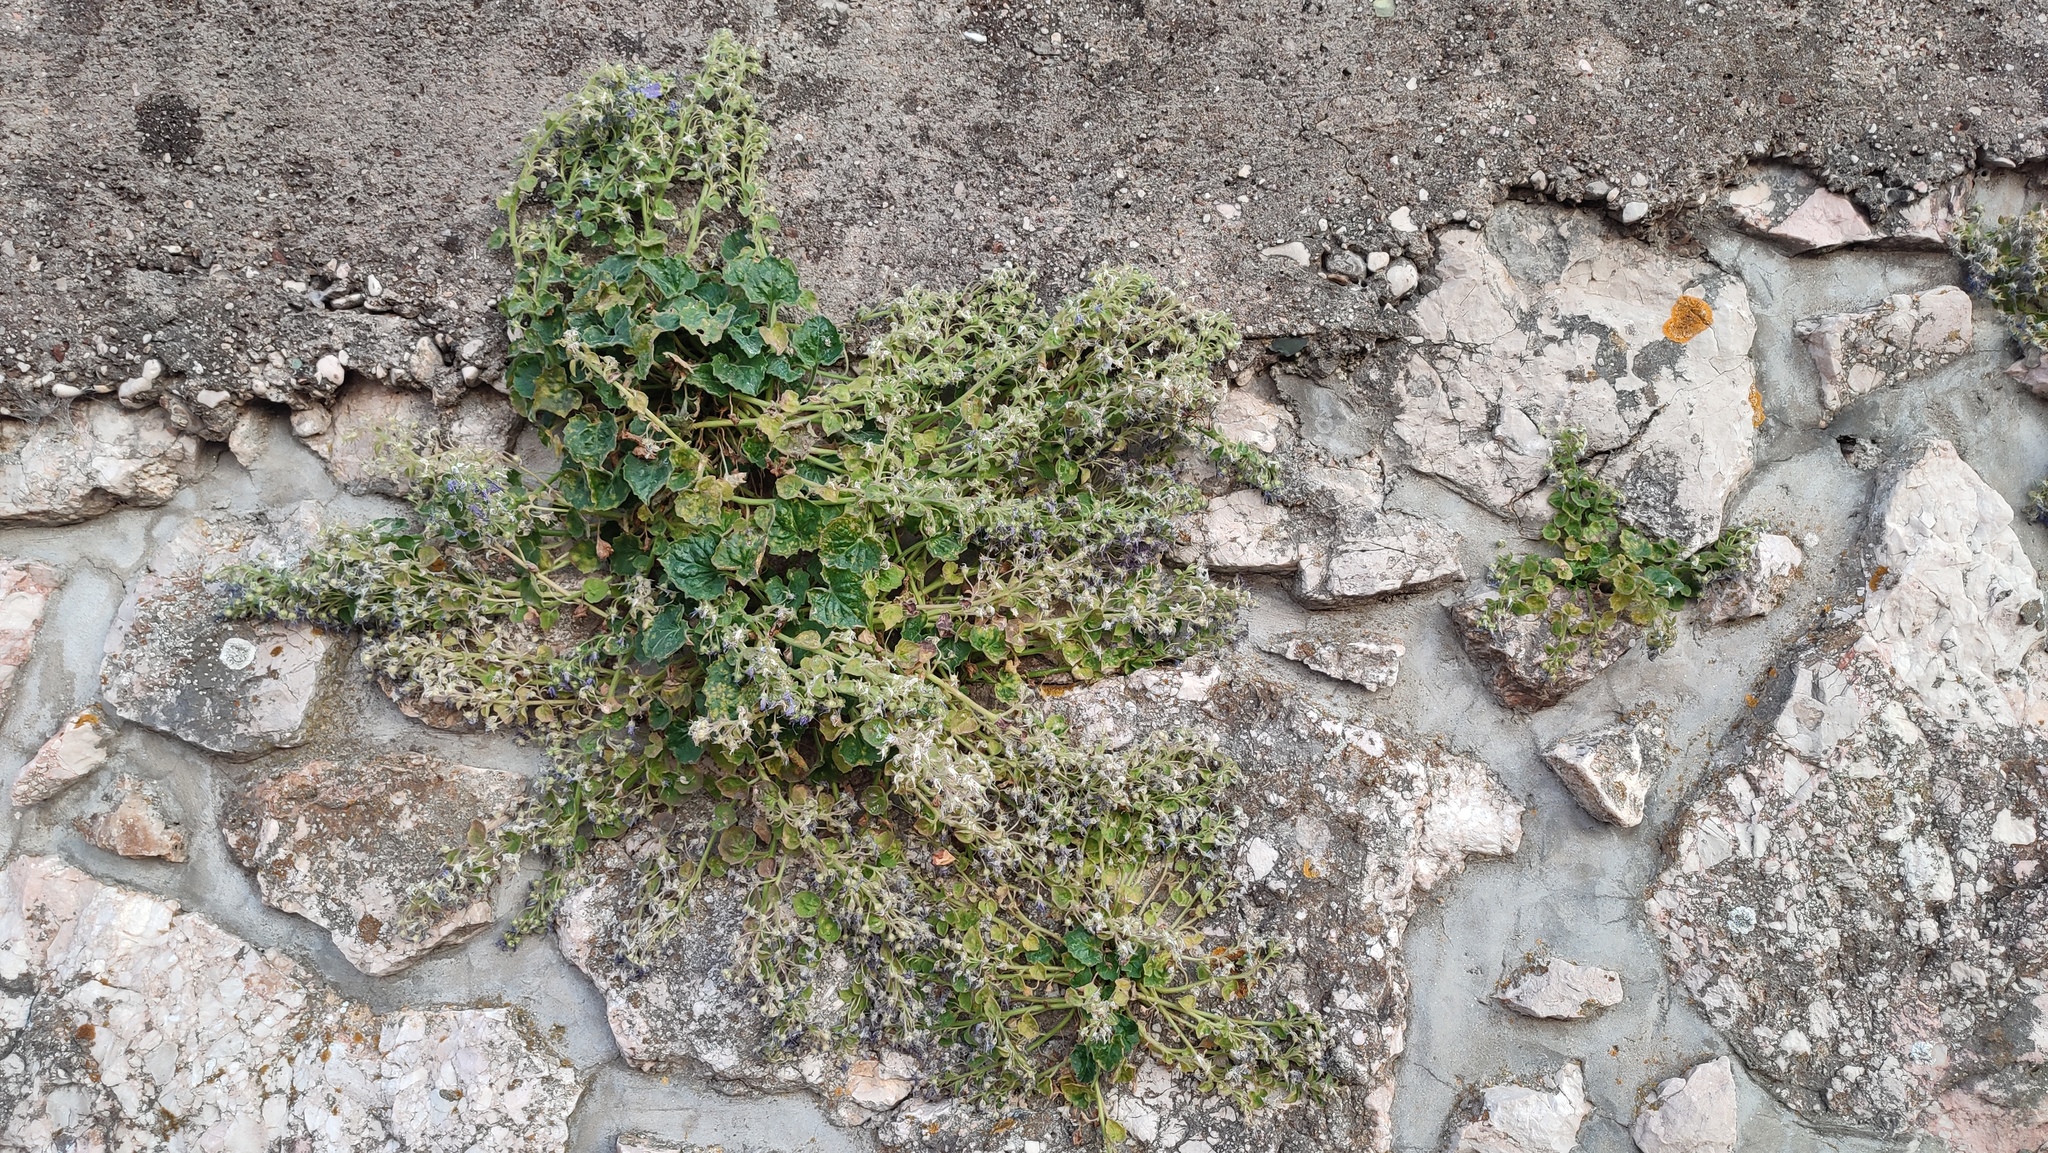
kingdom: Plantae
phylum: Tracheophyta
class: Magnoliopsida
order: Asterales
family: Campanulaceae
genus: Campanula
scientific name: Campanula fenestrellata
